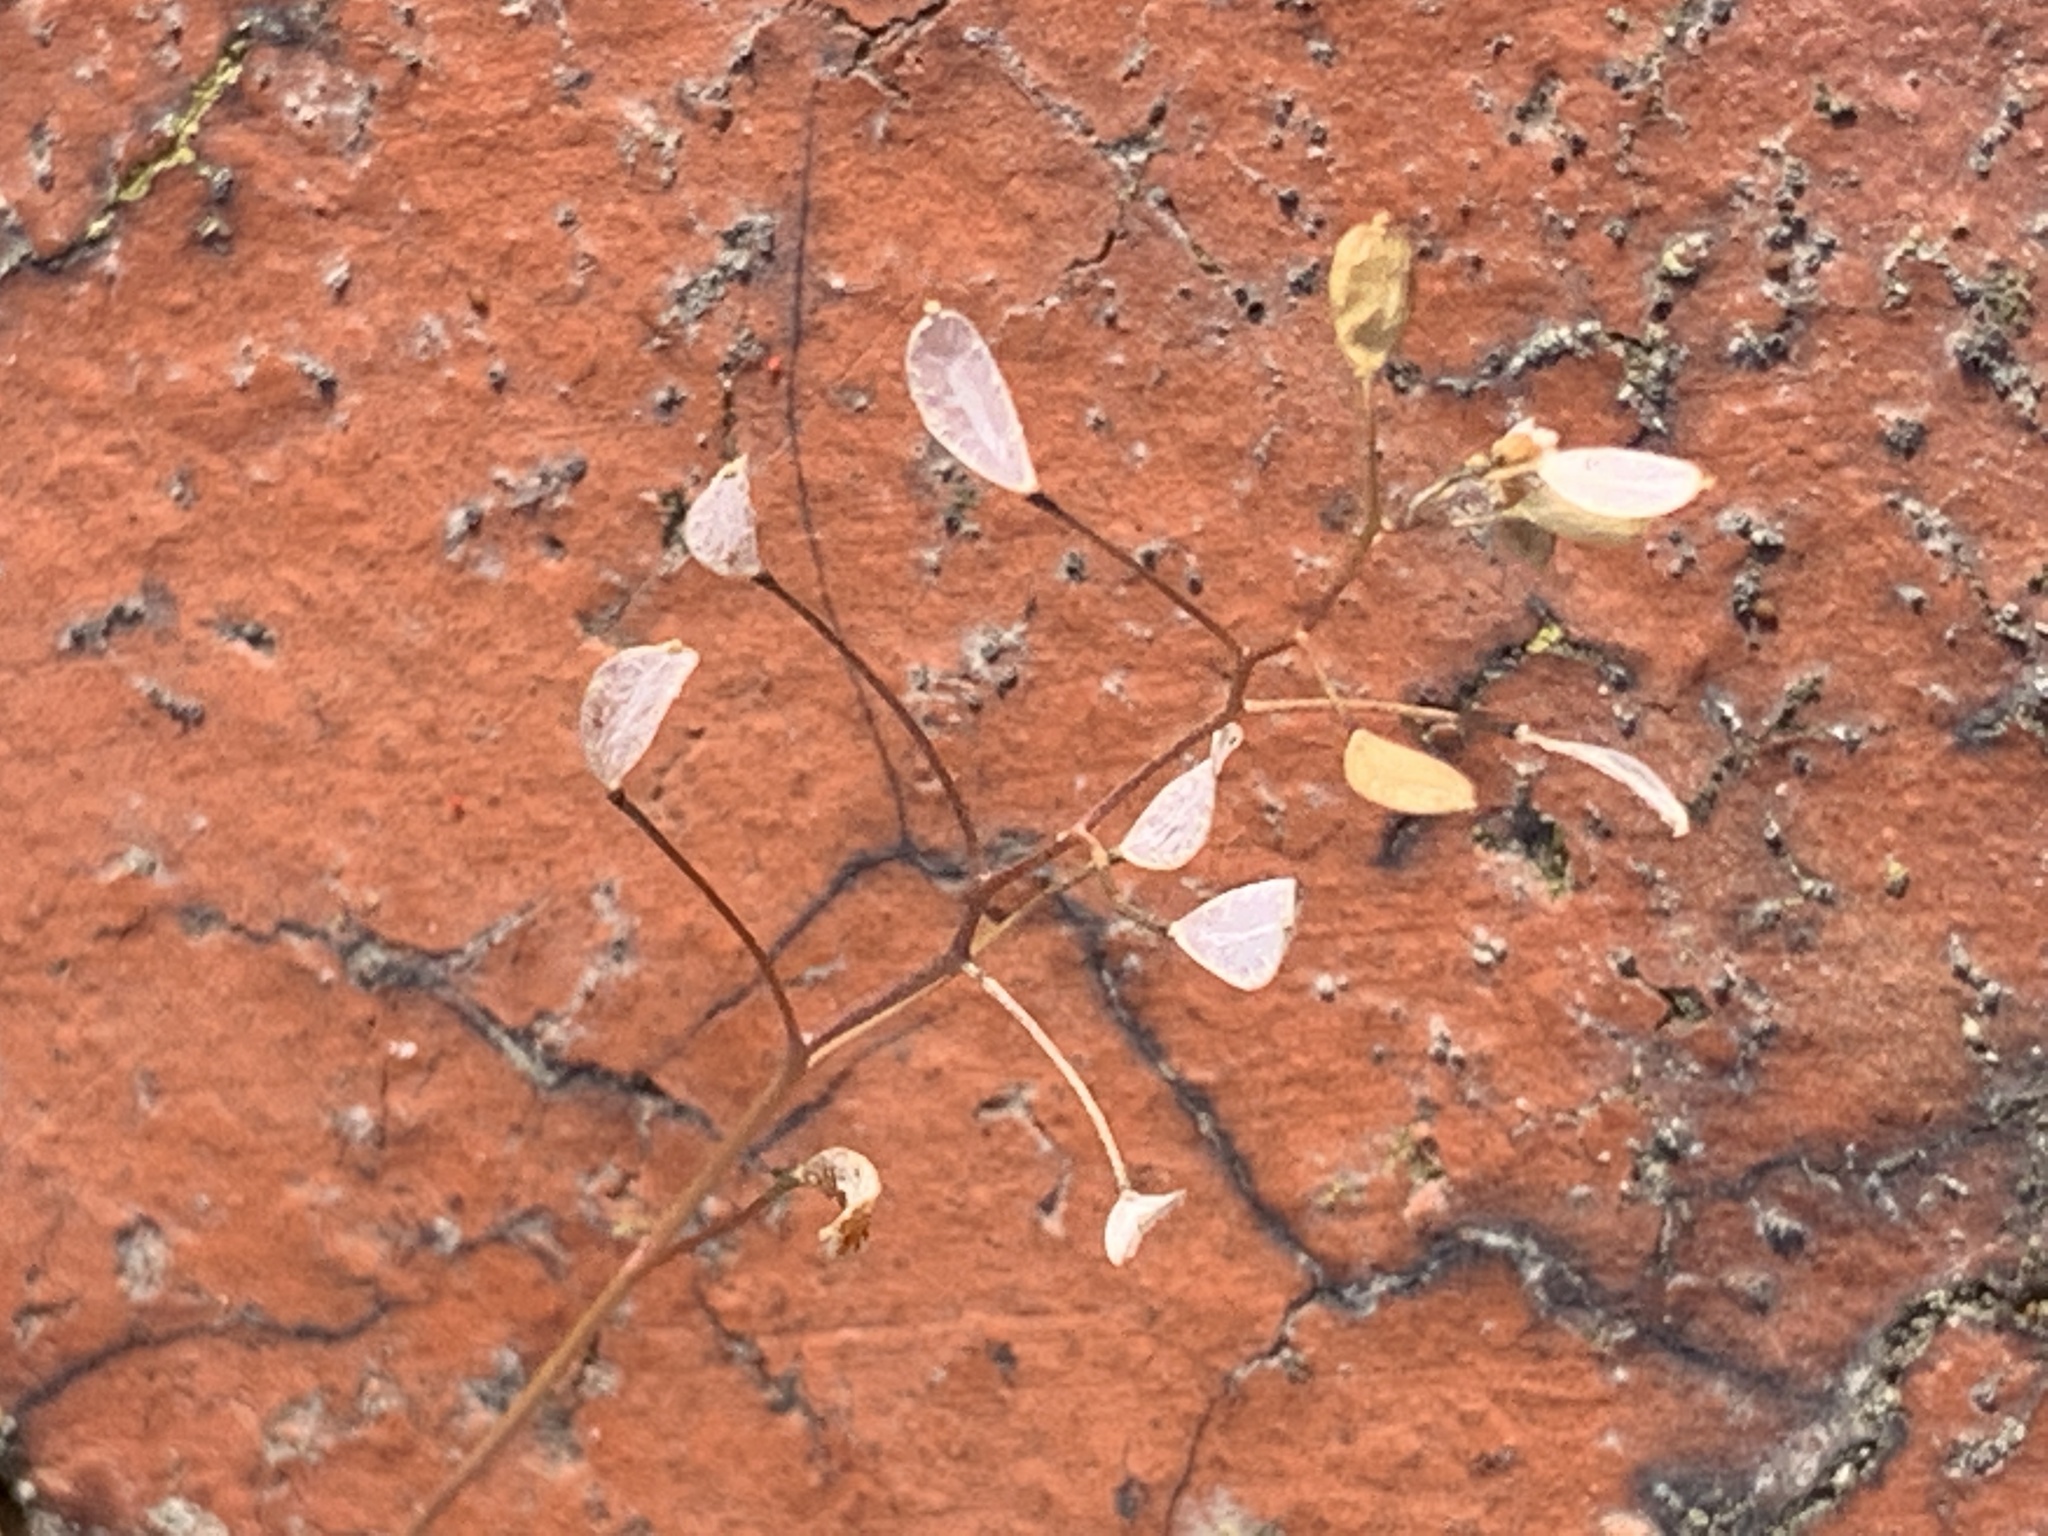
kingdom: Plantae
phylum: Tracheophyta
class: Magnoliopsida
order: Brassicales
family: Brassicaceae
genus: Draba
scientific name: Draba verna
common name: Spring draba
